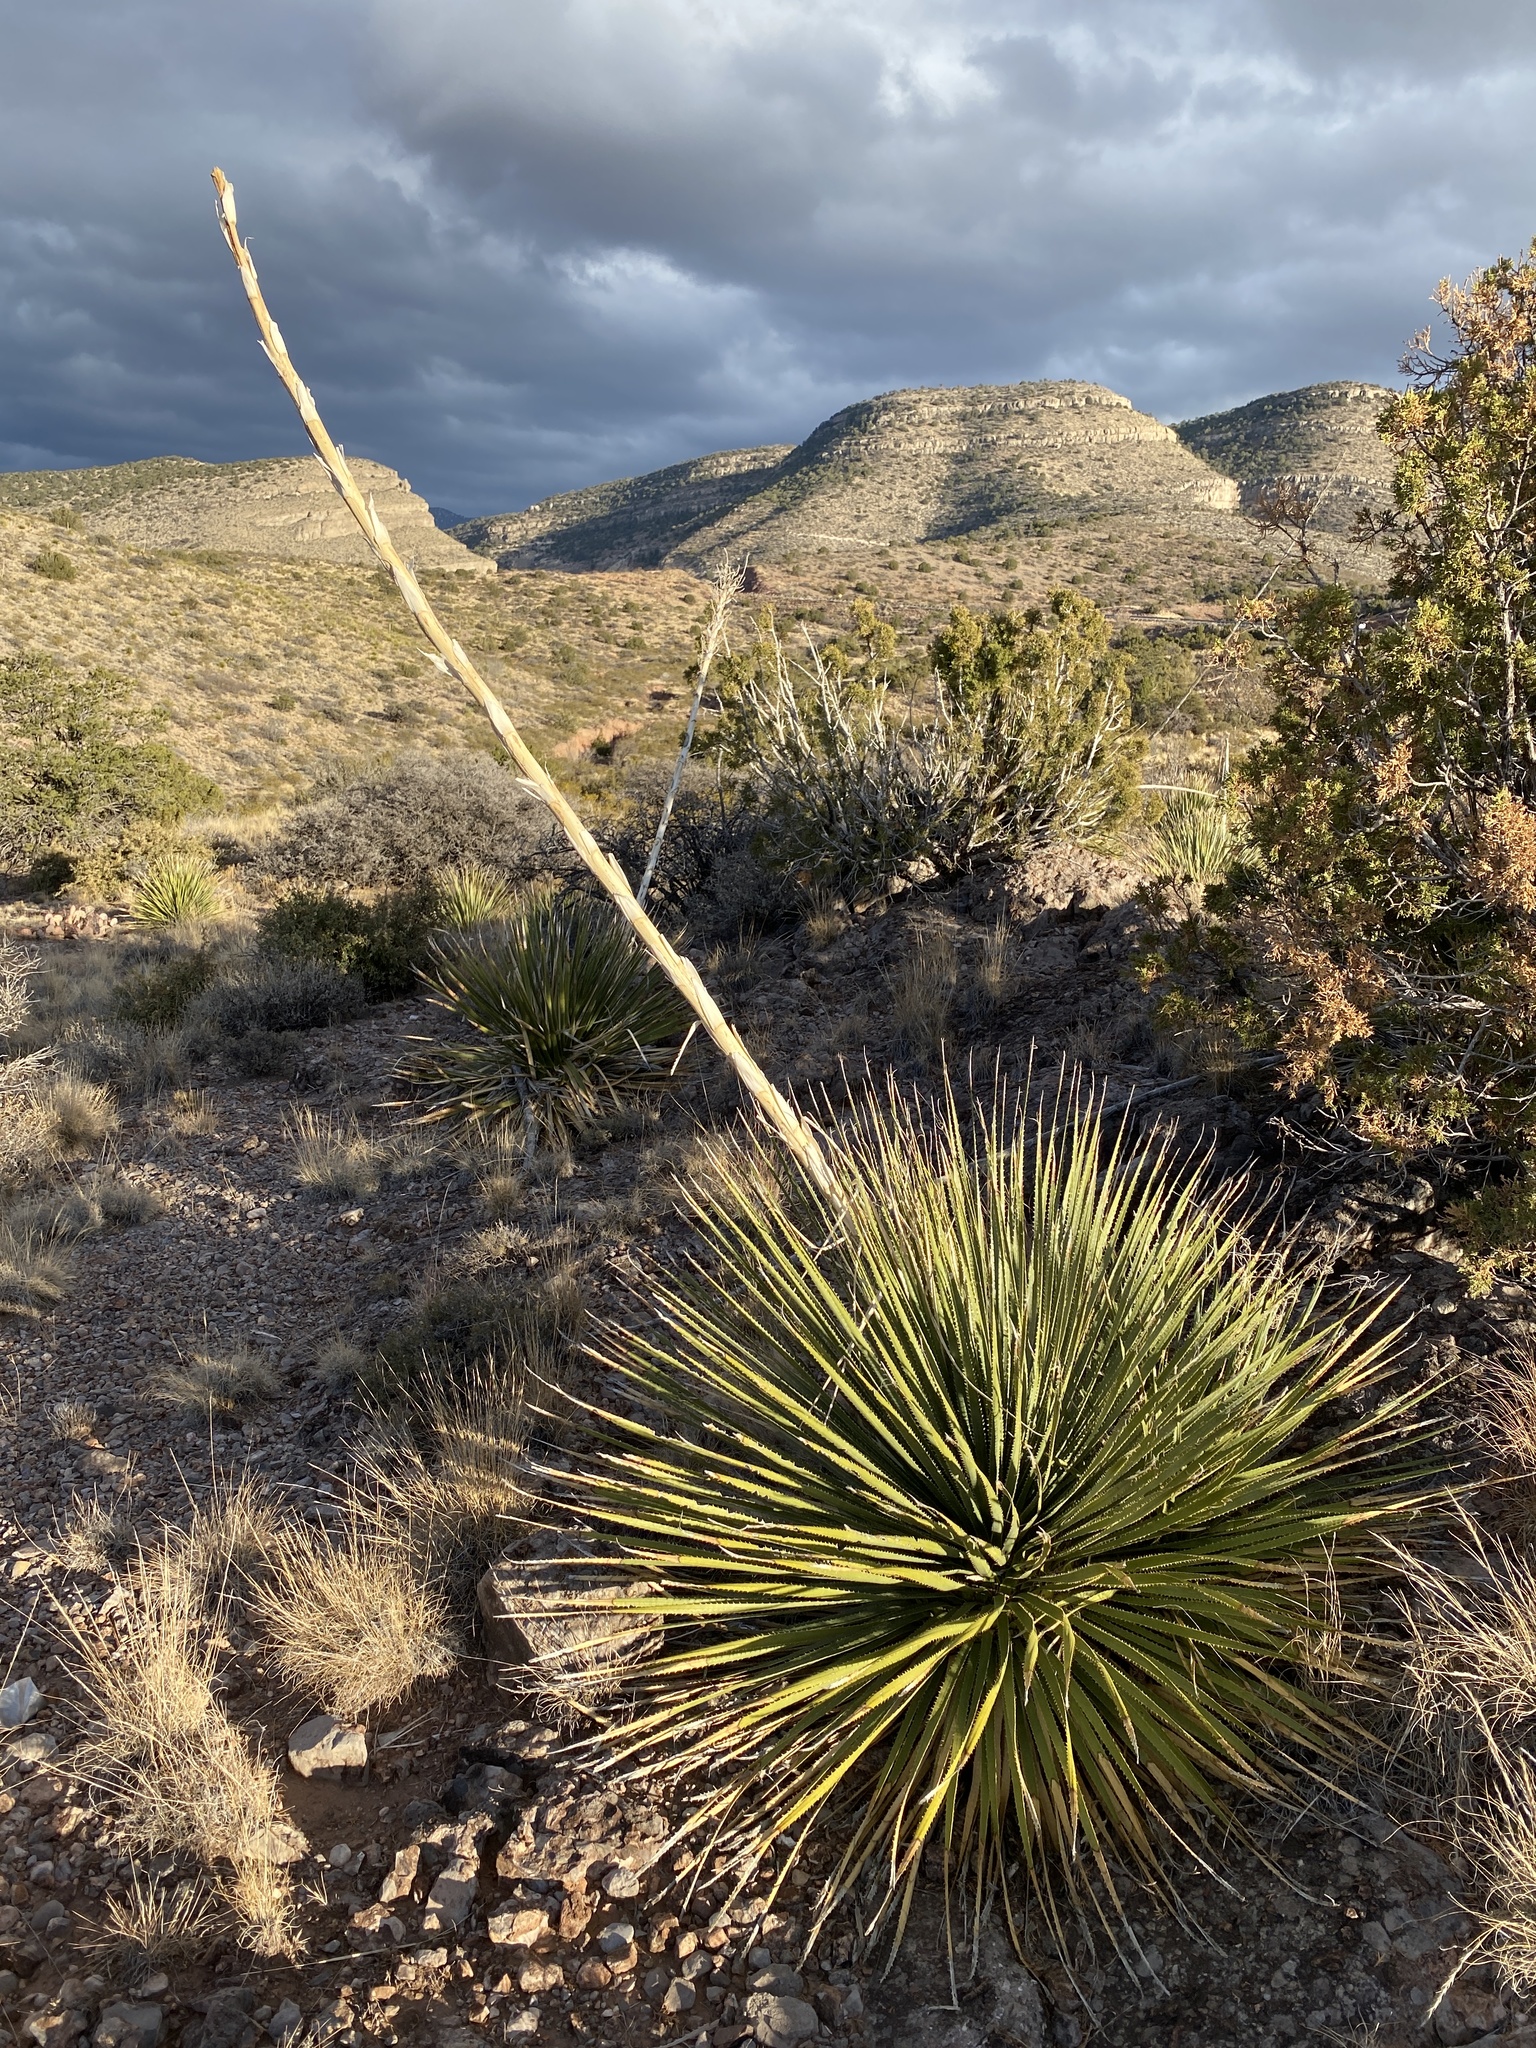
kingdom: Plantae
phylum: Tracheophyta
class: Liliopsida
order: Asparagales
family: Asparagaceae
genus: Dasylirion
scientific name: Dasylirion wheeleri
